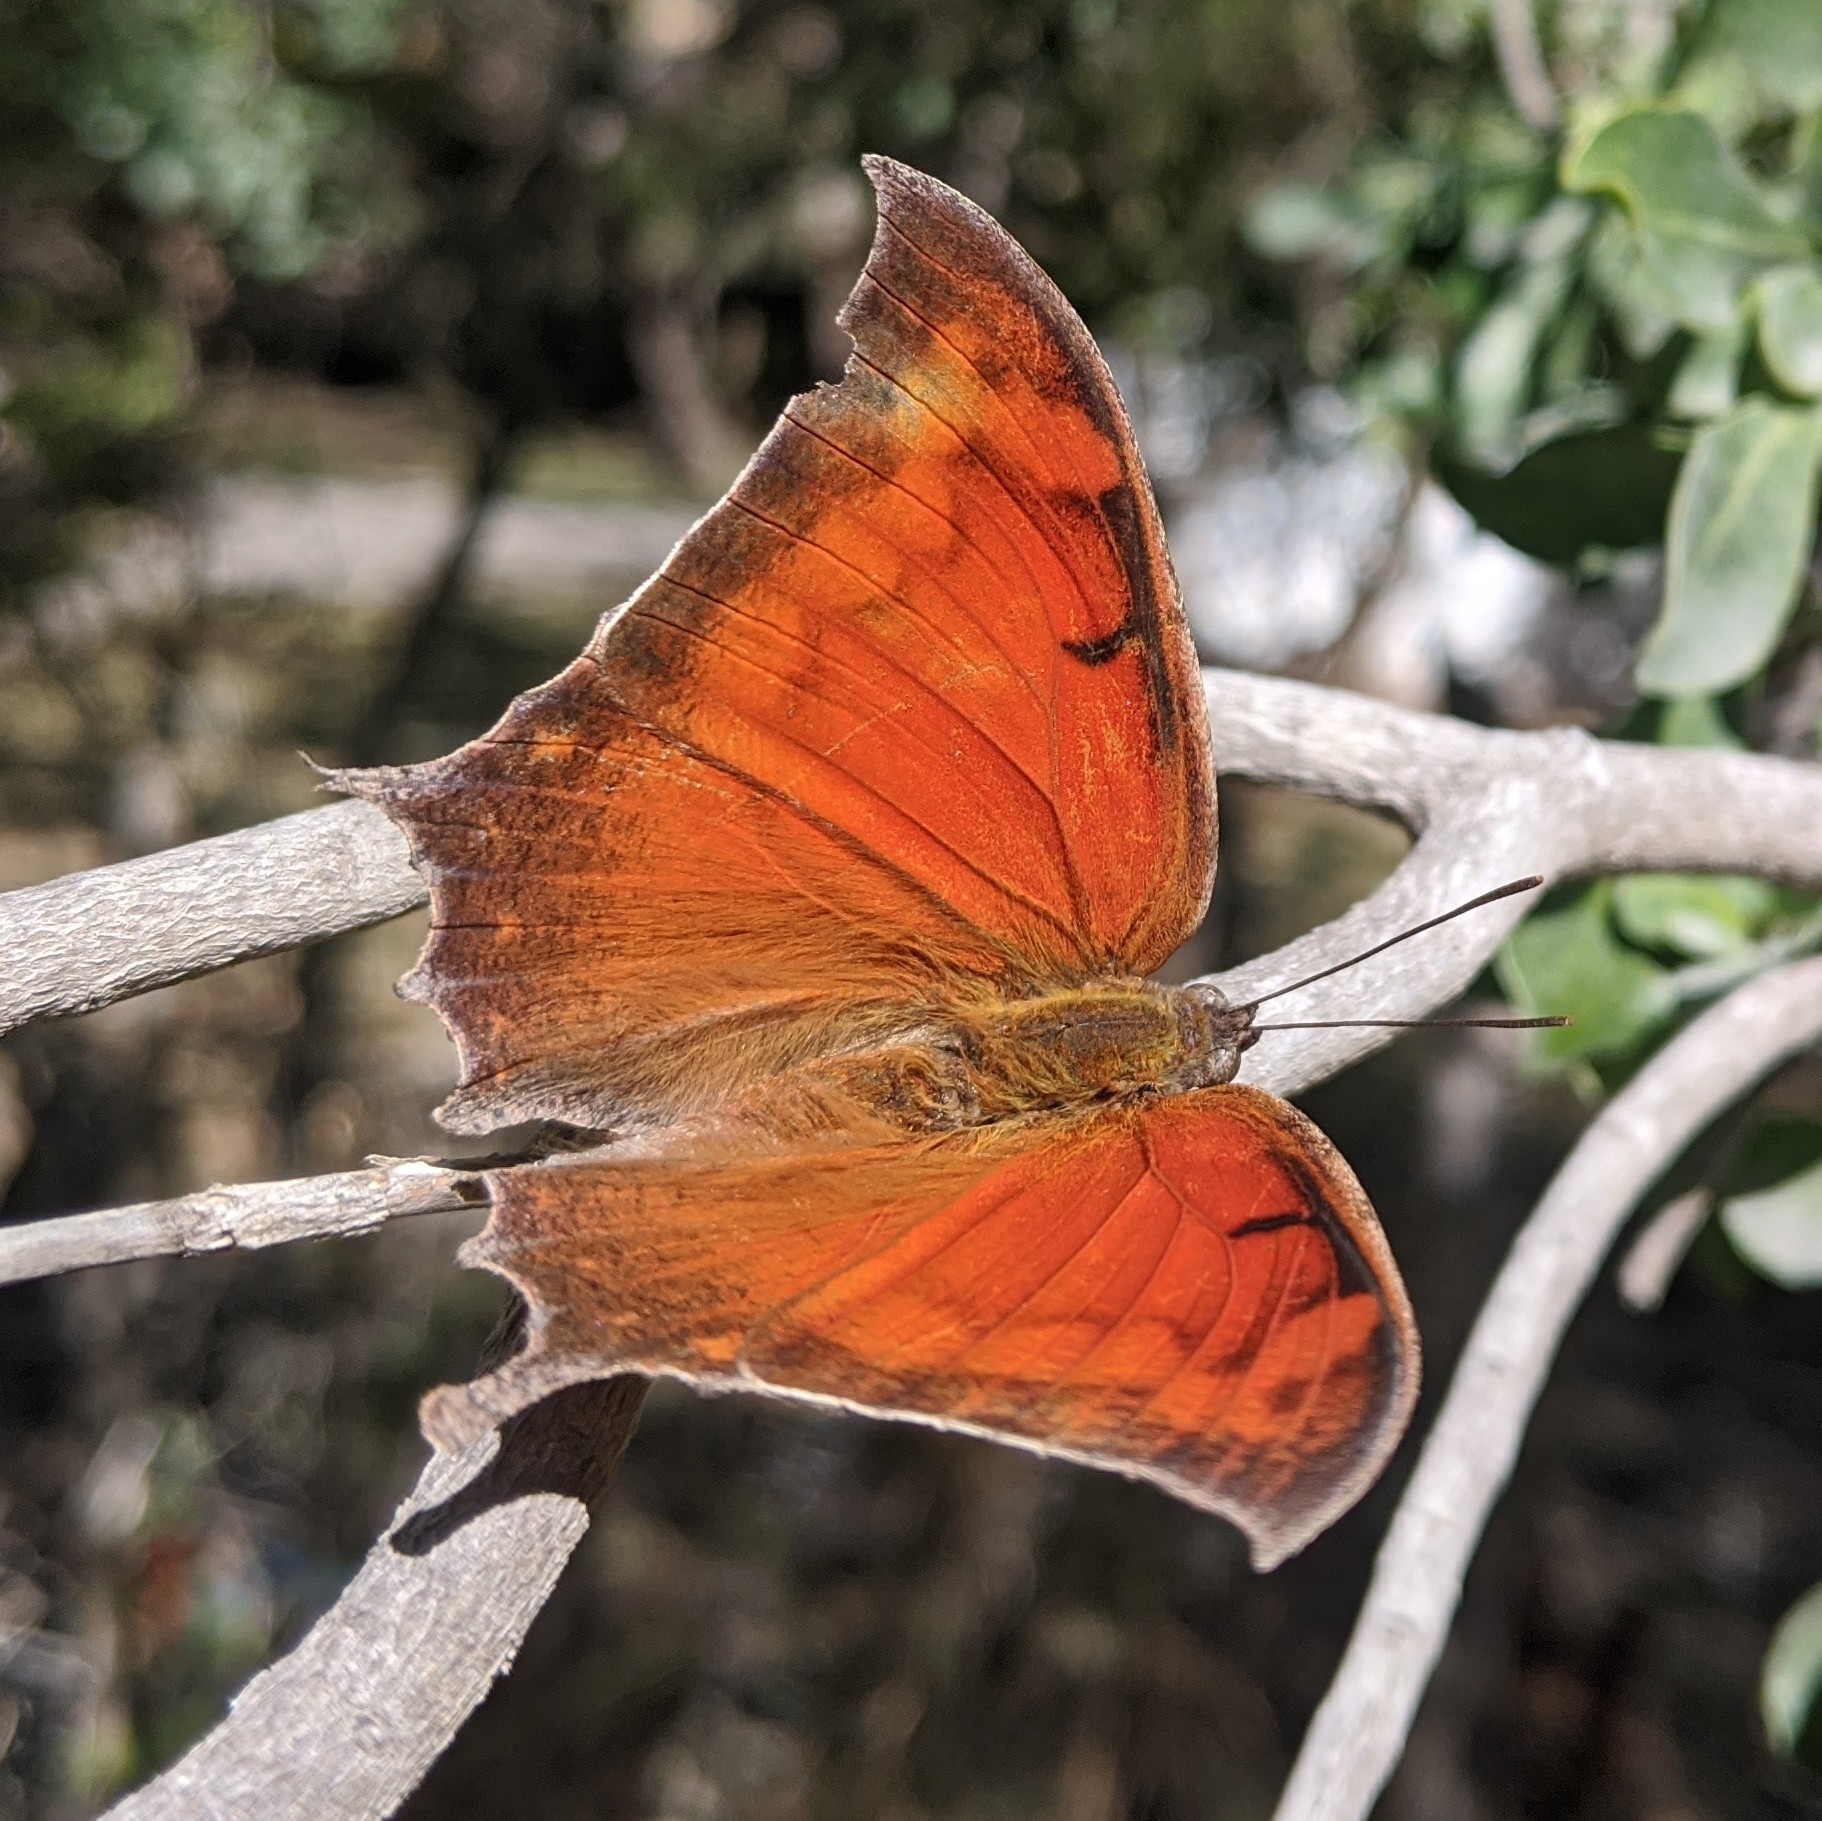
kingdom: Animalia
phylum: Arthropoda
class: Insecta
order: Lepidoptera
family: Nymphalidae
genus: Anaea
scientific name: Anaea aidea
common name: Tropical leafwing
